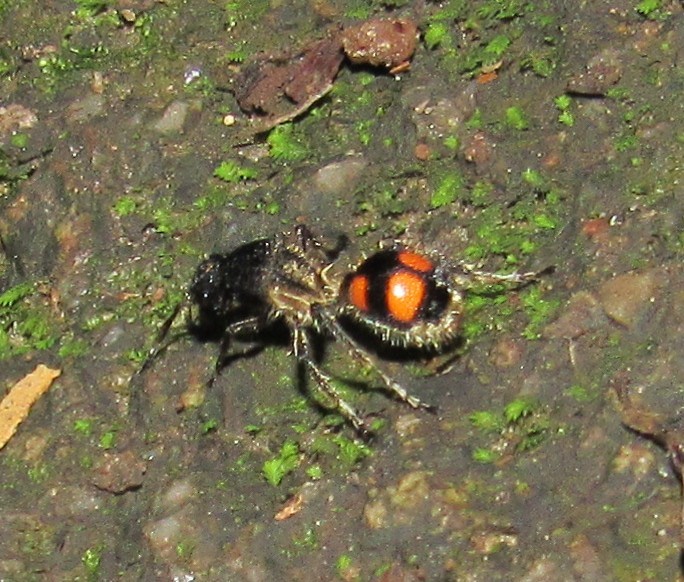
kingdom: Animalia
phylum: Arthropoda
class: Insecta
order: Hymenoptera
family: Mutillidae
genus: Traumatomutilla
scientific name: Traumatomutilla inermis
